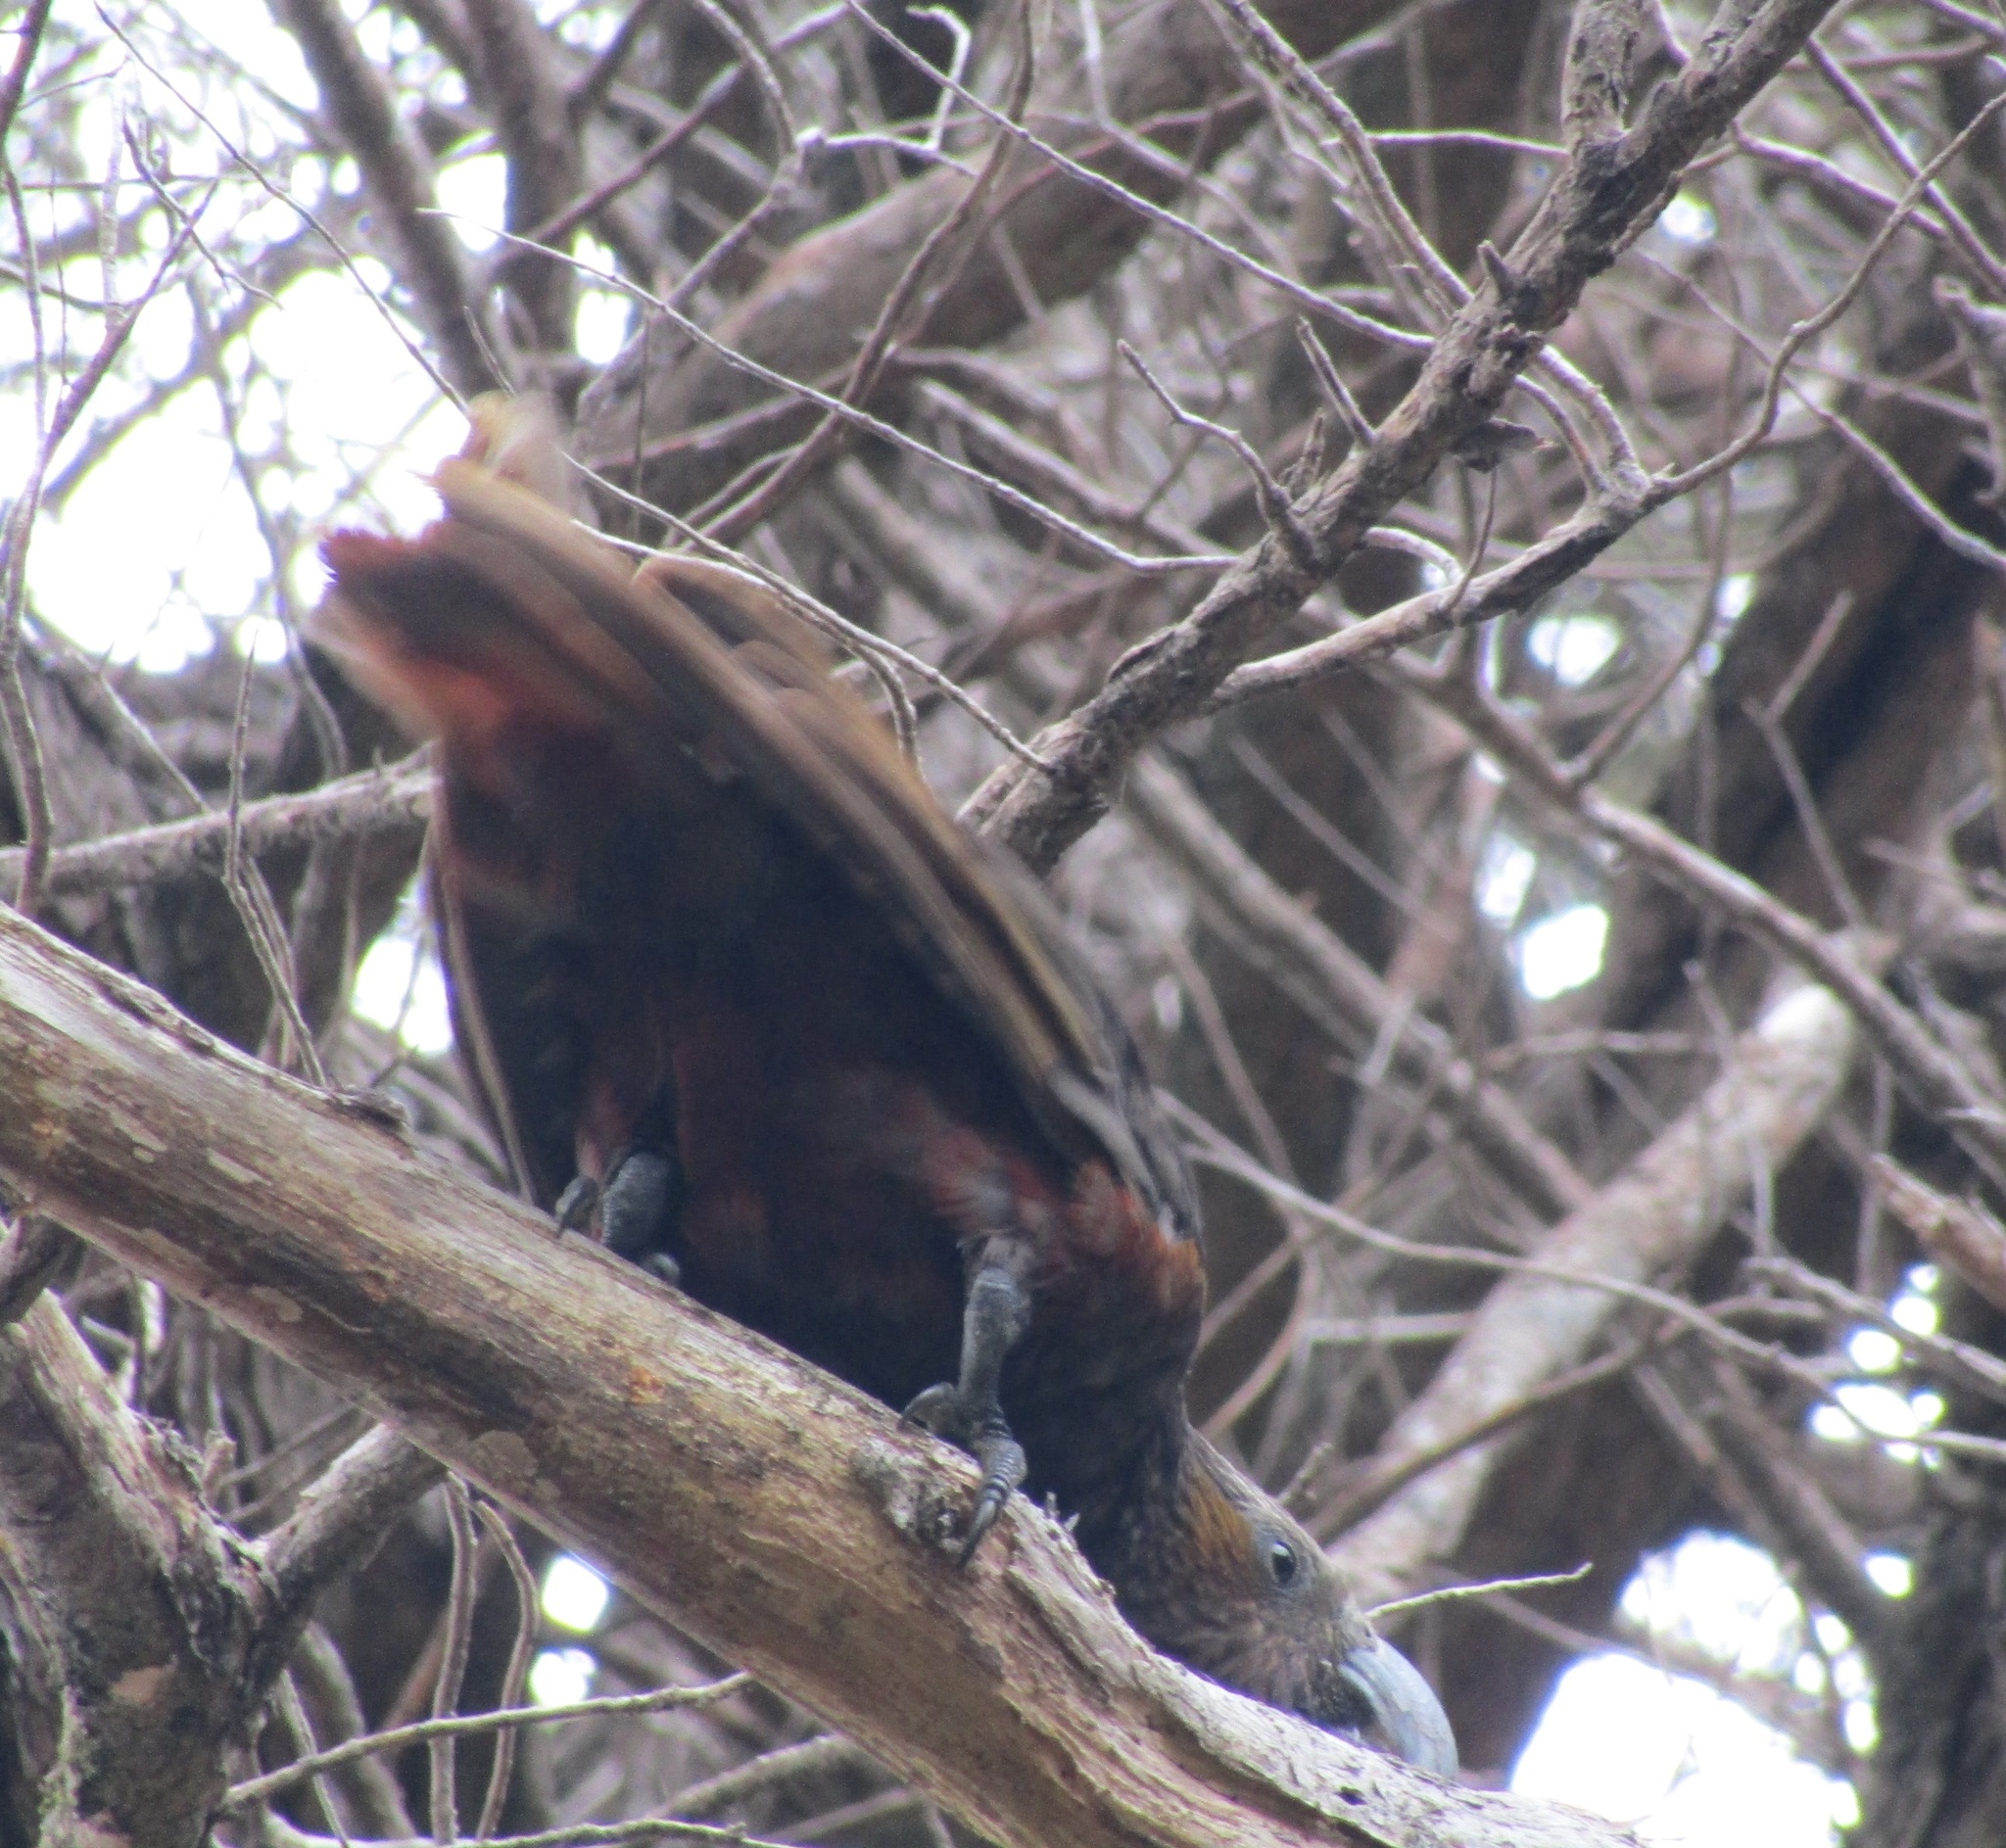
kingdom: Animalia
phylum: Chordata
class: Aves
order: Psittaciformes
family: Psittacidae
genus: Nestor
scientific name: Nestor meridionalis
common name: New zealand kaka
